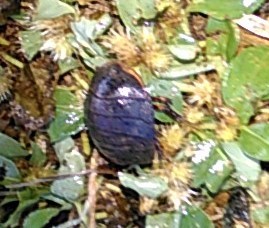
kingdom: Animalia
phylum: Arthropoda
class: Insecta
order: Blattodea
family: Corydiidae
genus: Arenivaga
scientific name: Arenivaga bolliana
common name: Boll's sand cockroach
